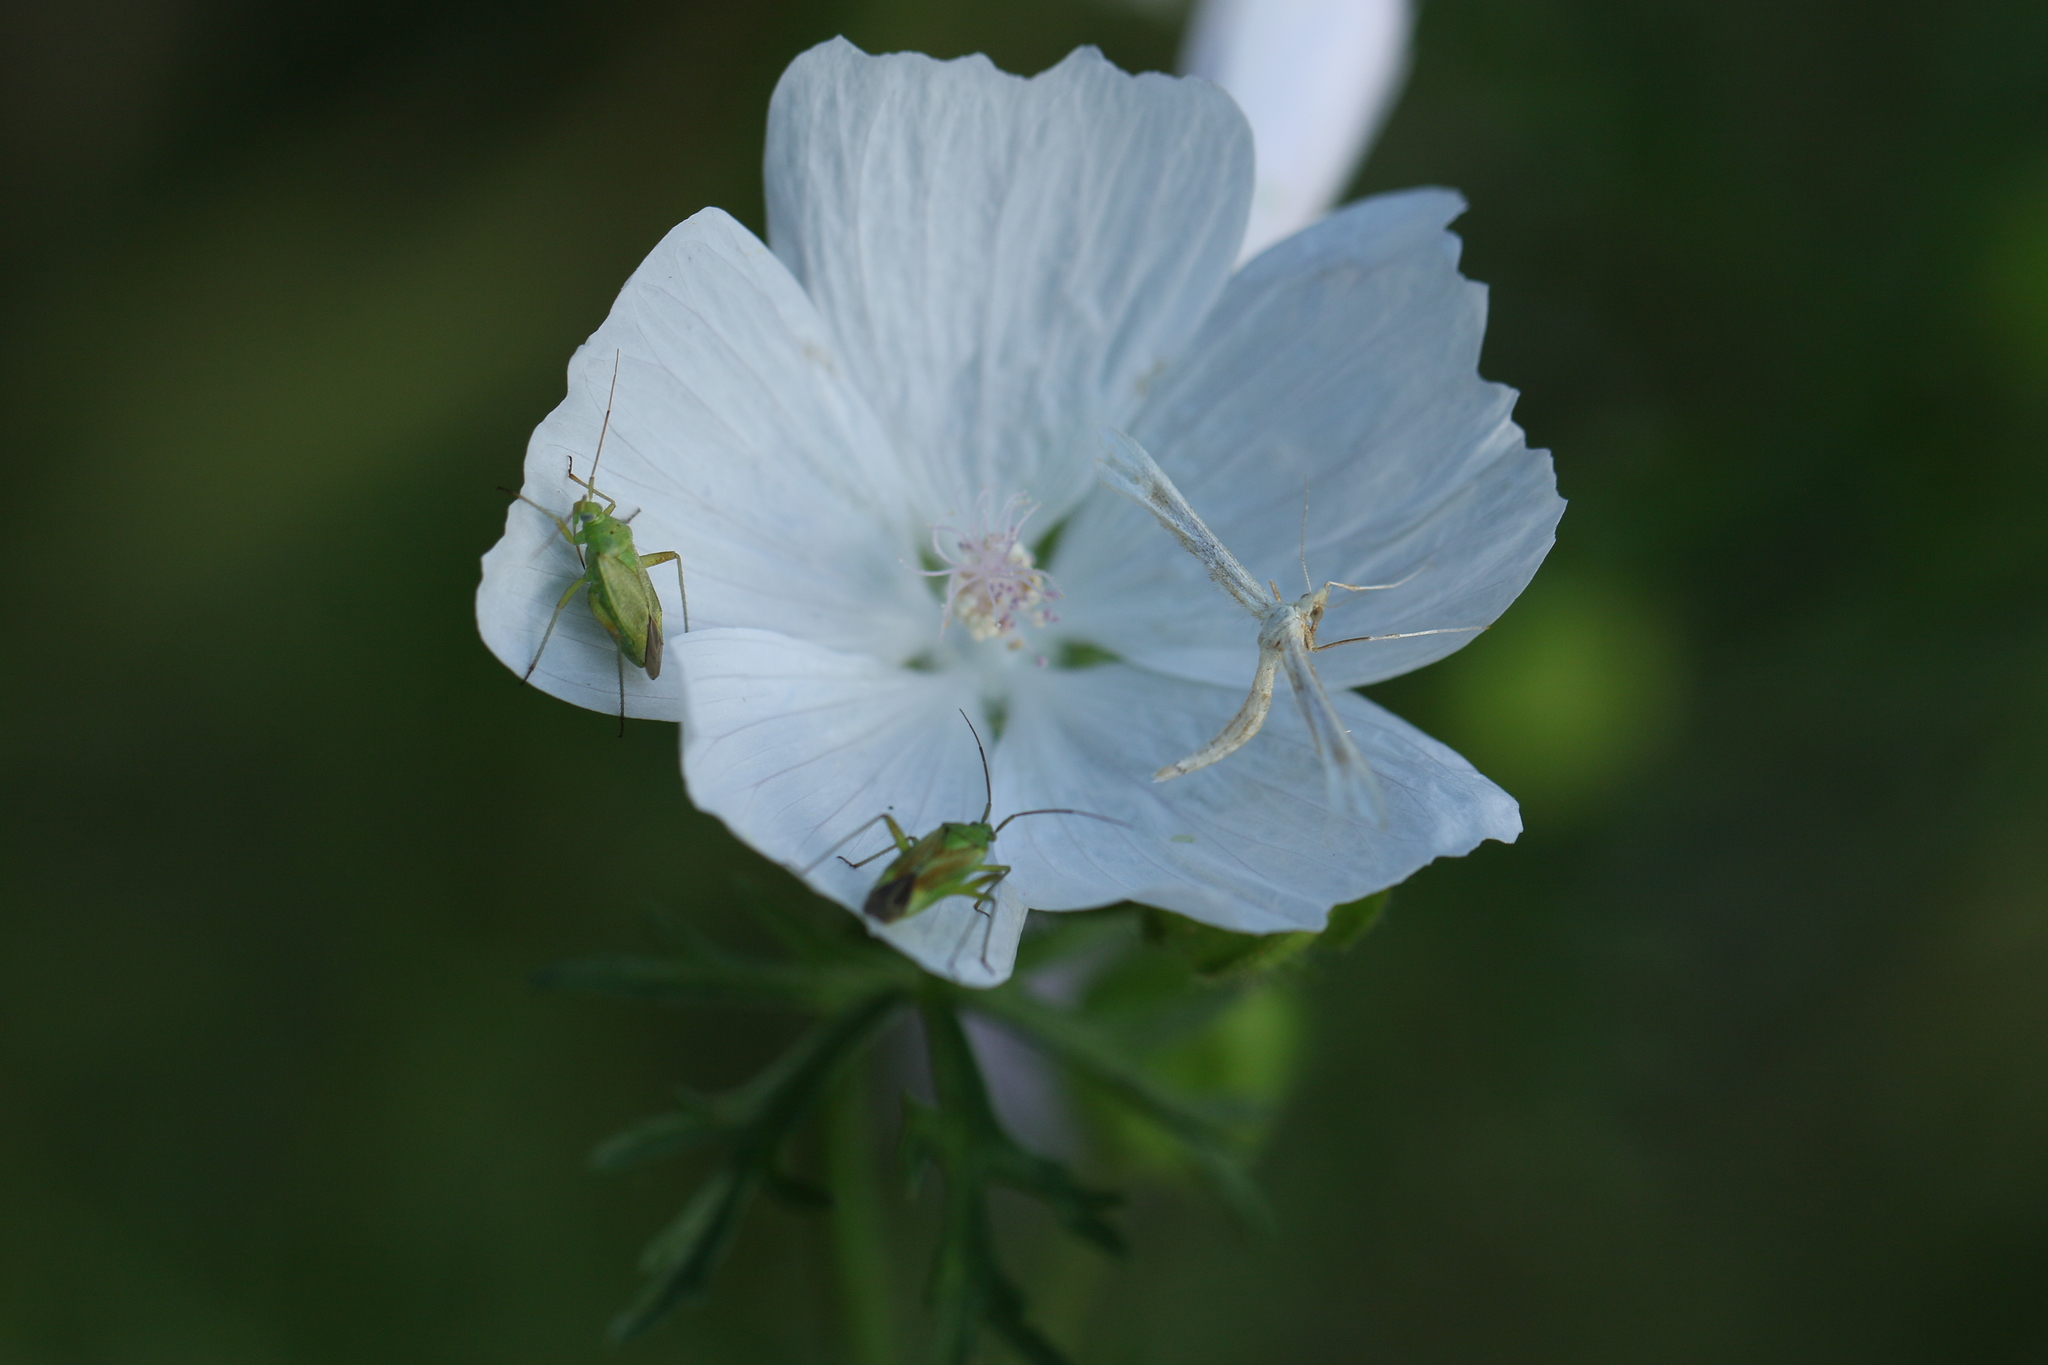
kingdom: Animalia
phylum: Arthropoda
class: Insecta
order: Lepidoptera
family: Pterophoridae
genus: Gillmeria
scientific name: Gillmeria pallidactyla
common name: Yarrow plume
